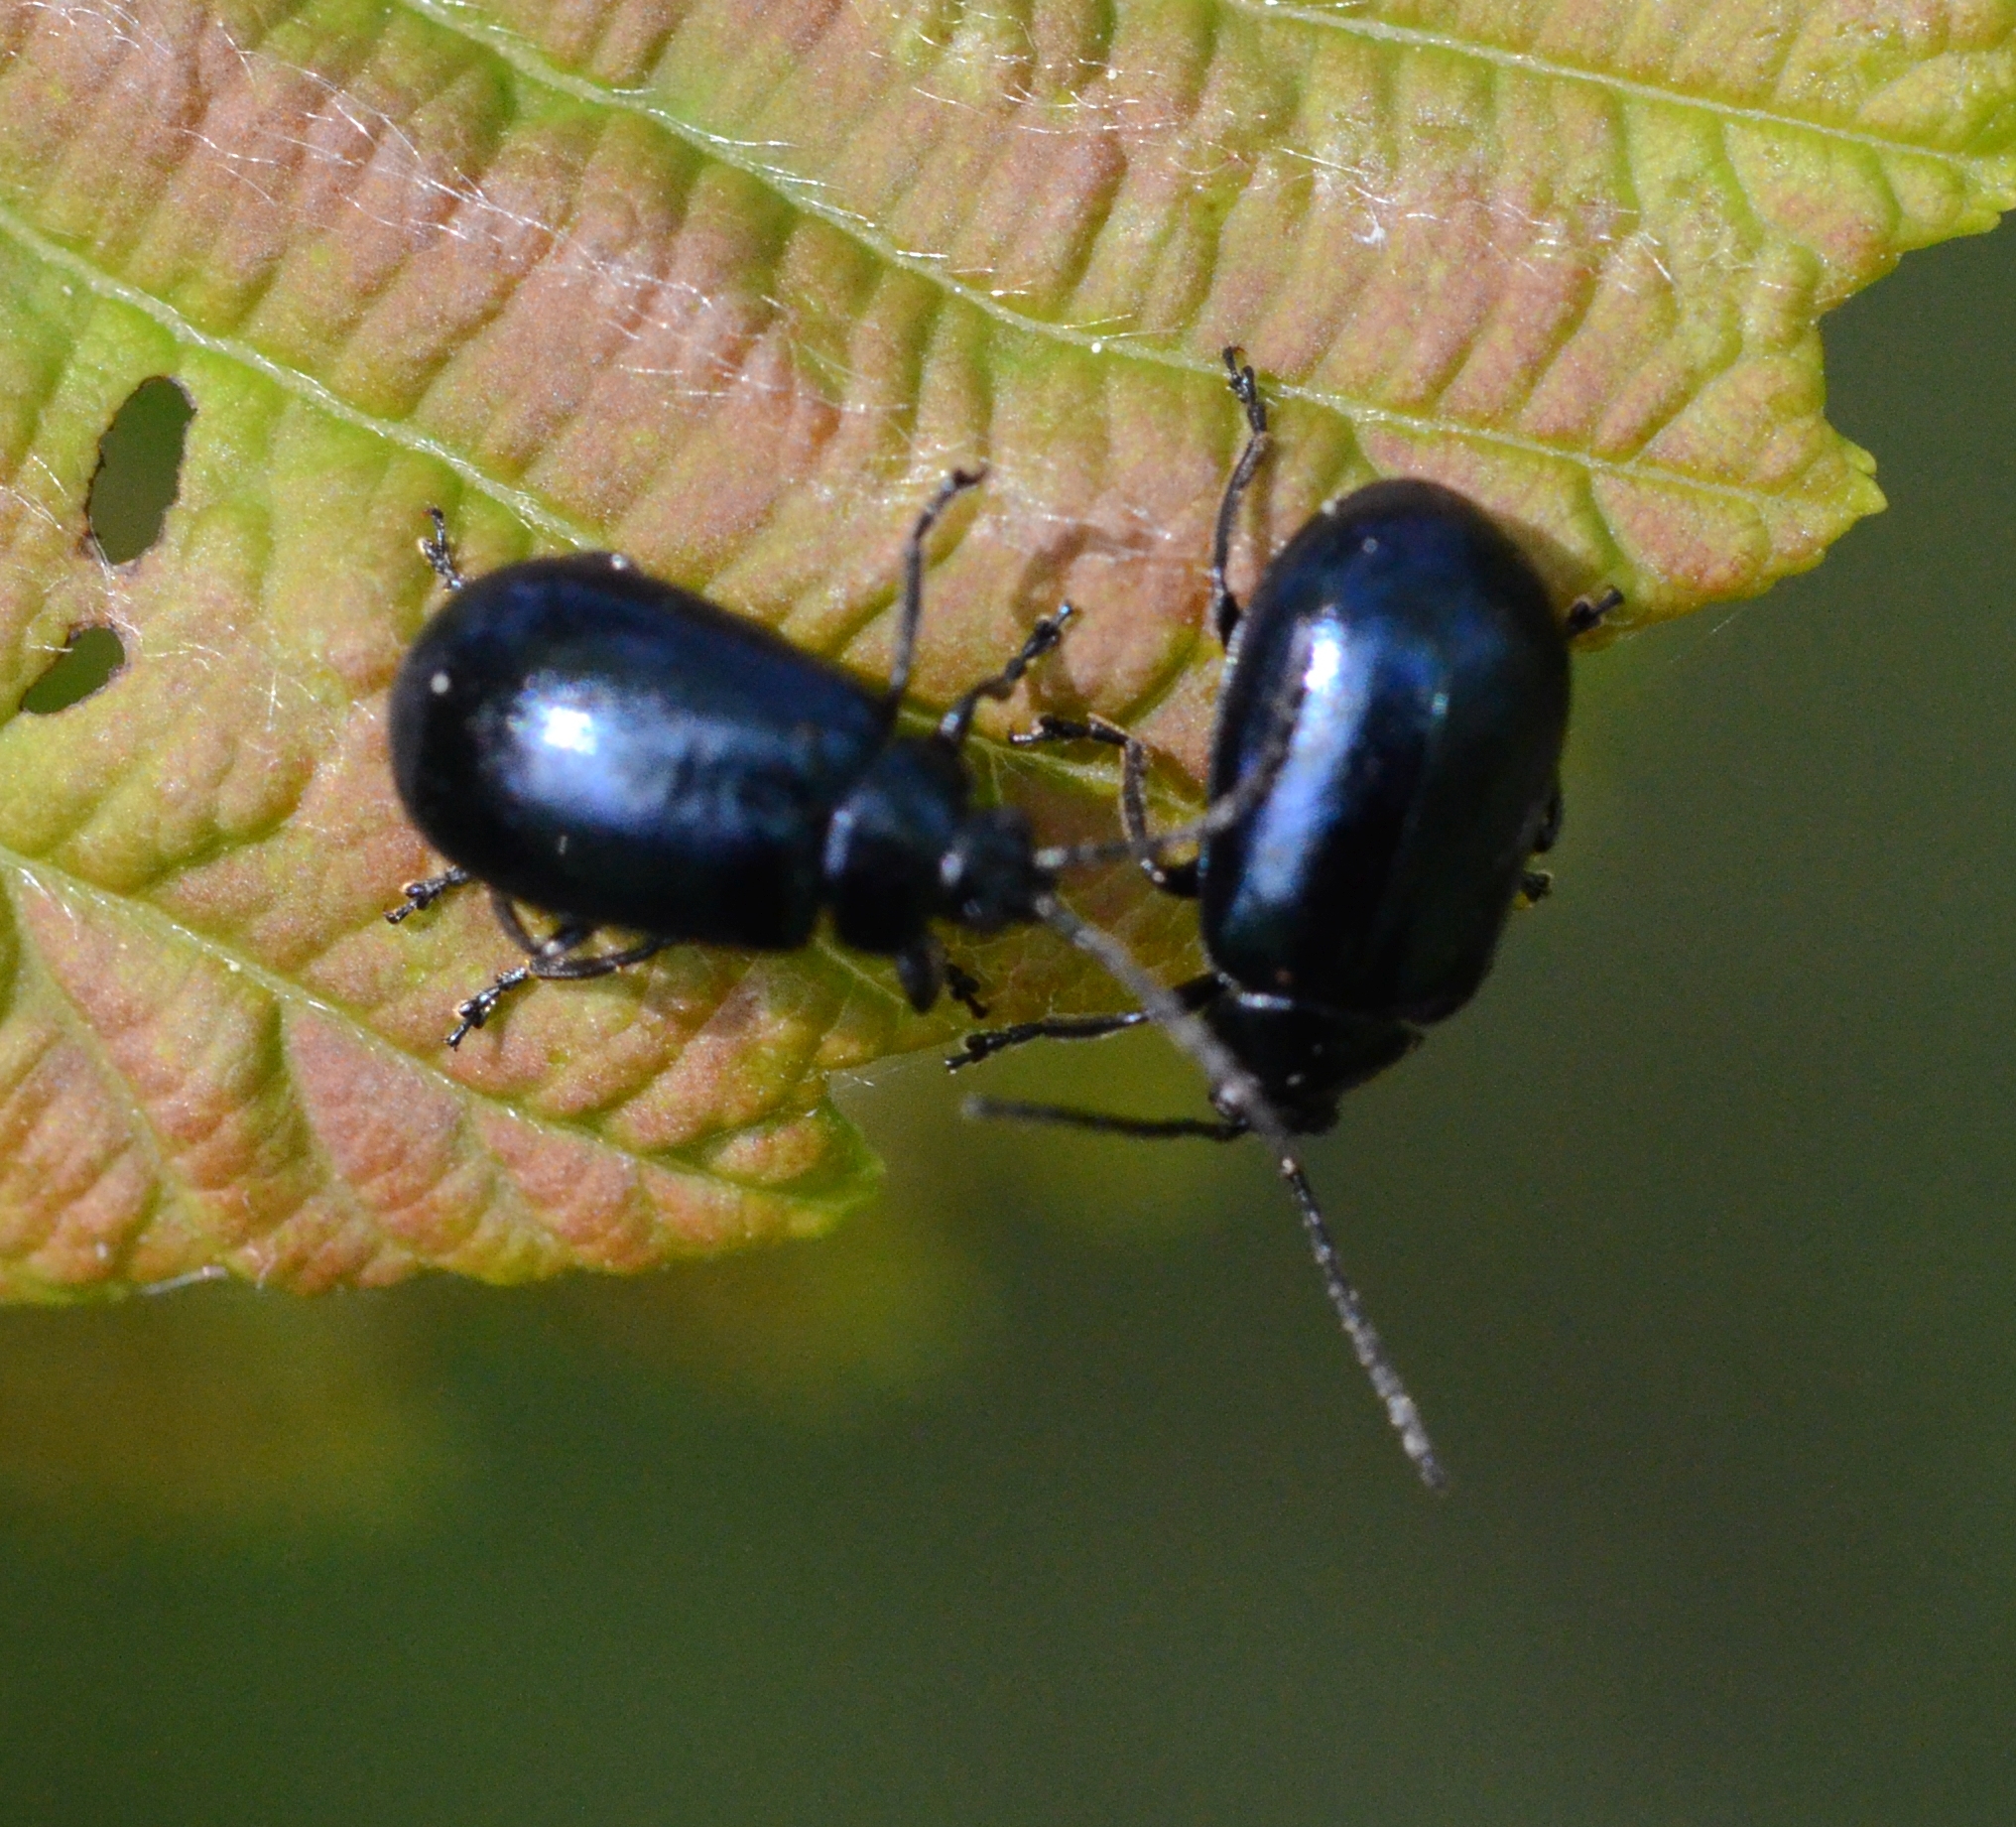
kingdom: Animalia
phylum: Arthropoda
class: Insecta
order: Coleoptera
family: Chrysomelidae
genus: Agelastica
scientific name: Agelastica alni
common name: Alder leaf beetle
